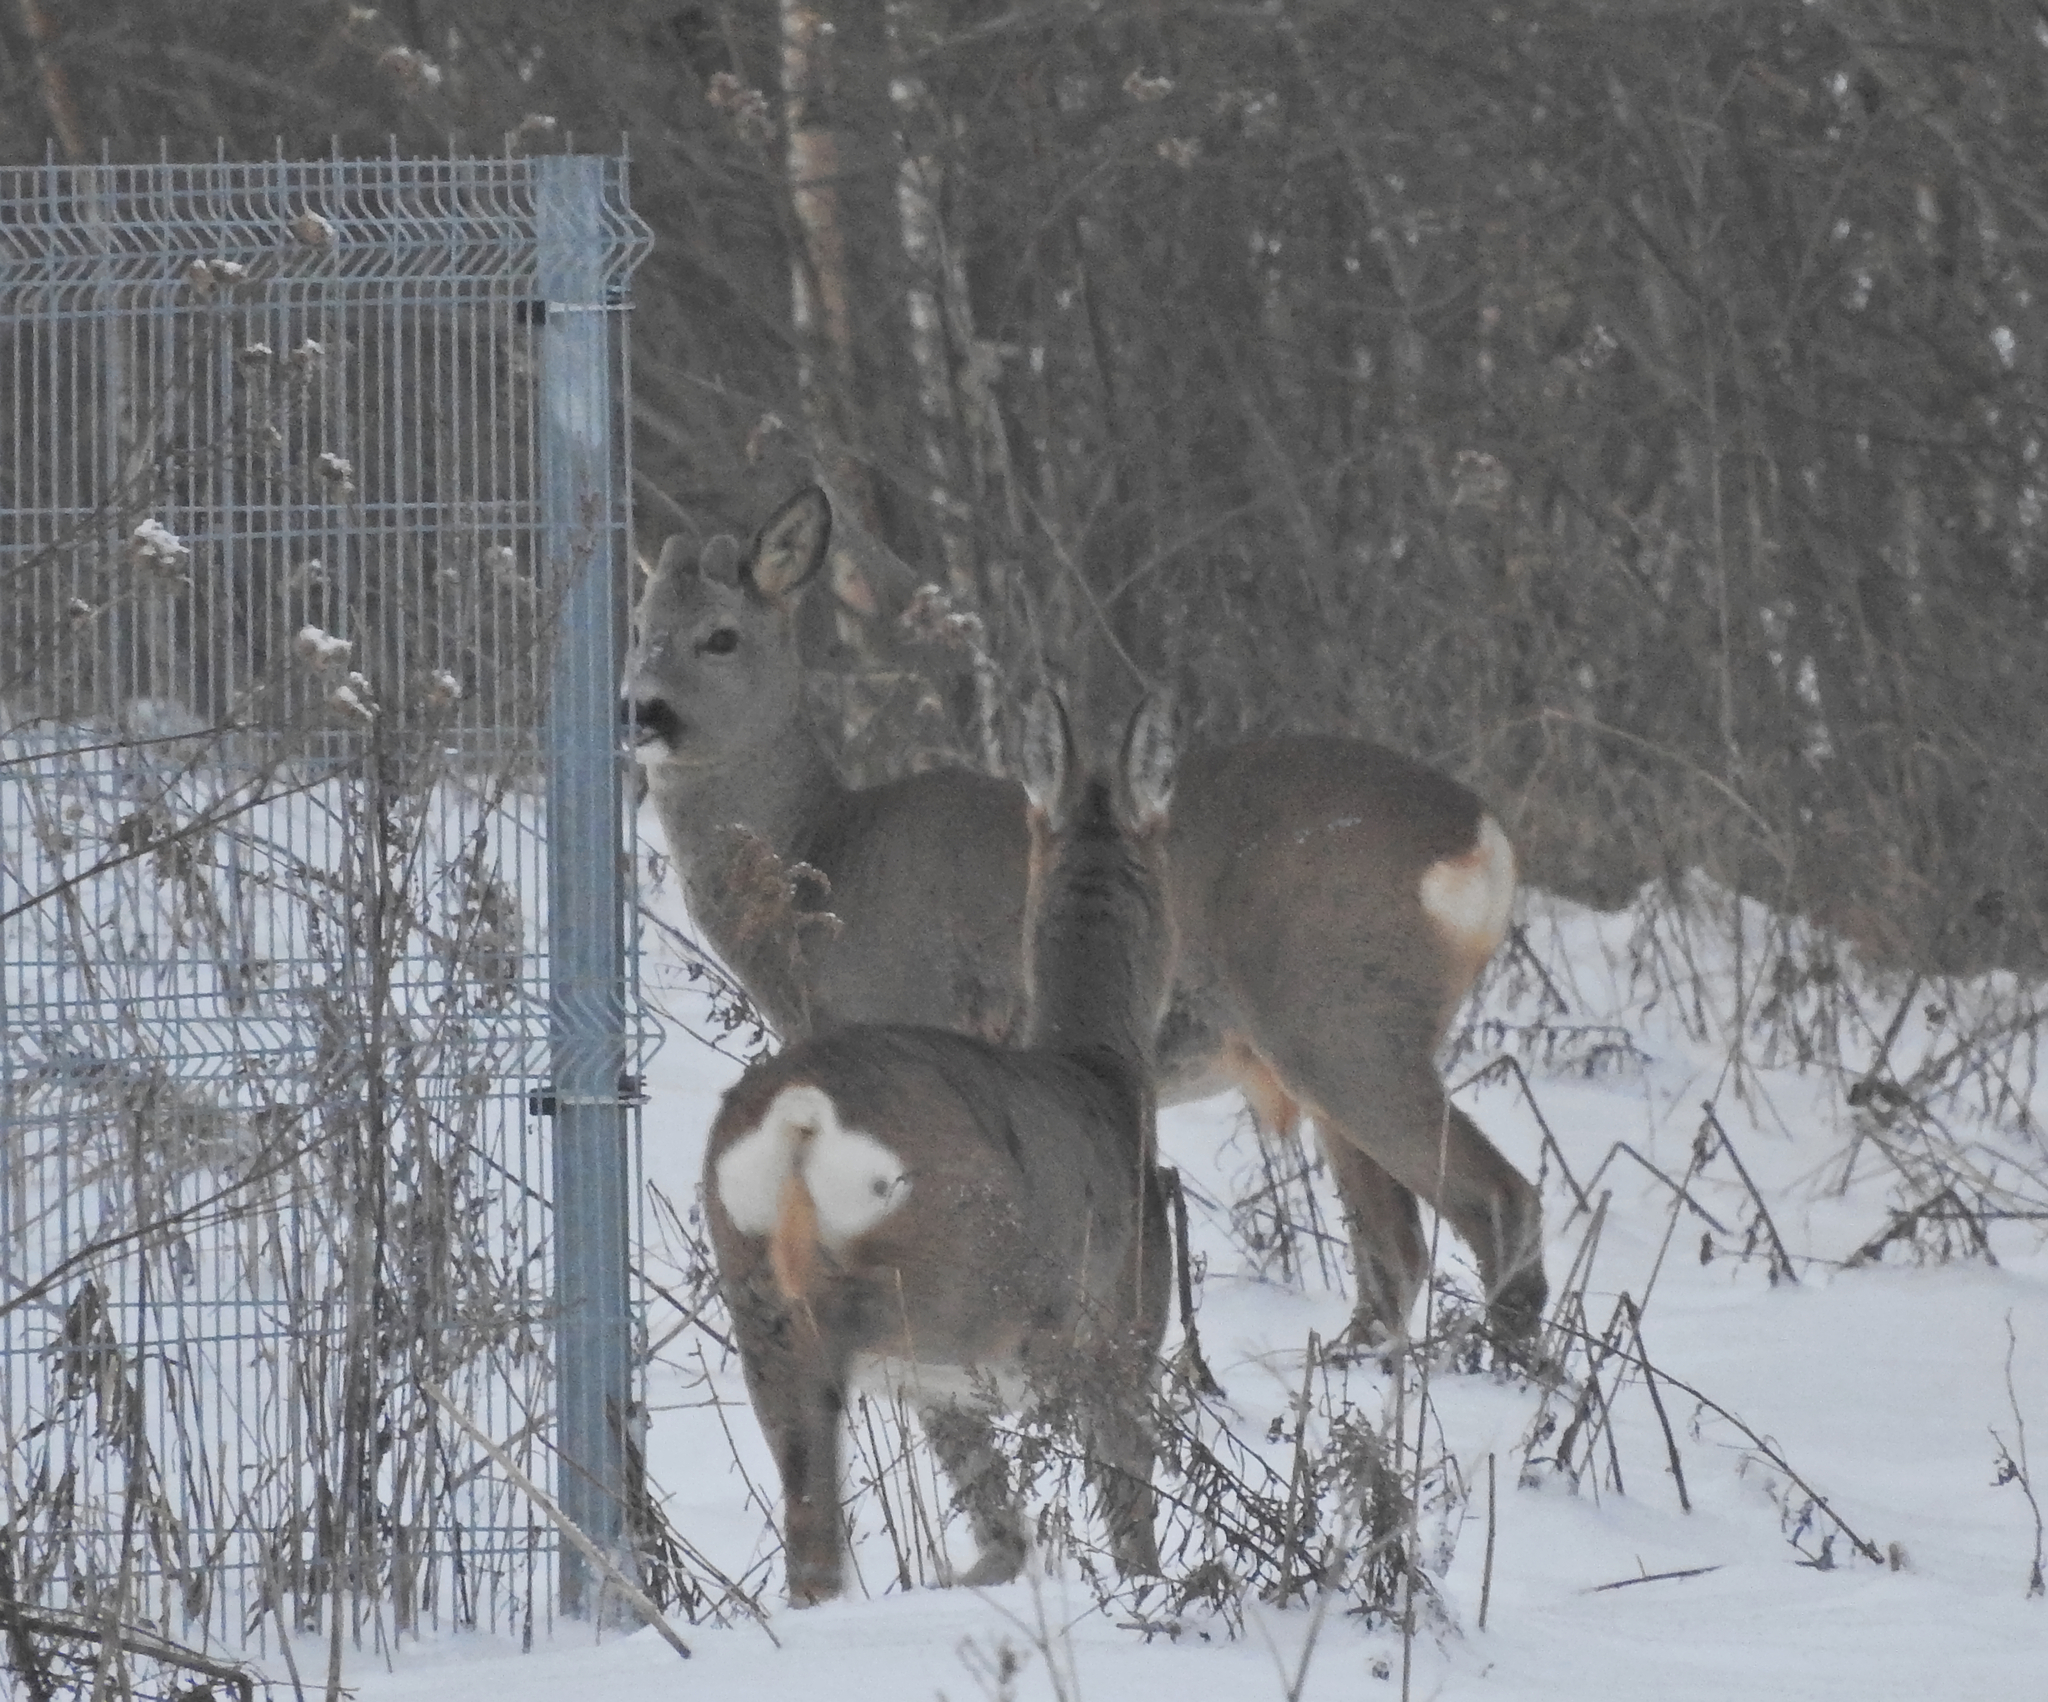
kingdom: Animalia
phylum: Chordata
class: Mammalia
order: Artiodactyla
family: Cervidae
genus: Capreolus
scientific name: Capreolus capreolus
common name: Western roe deer
